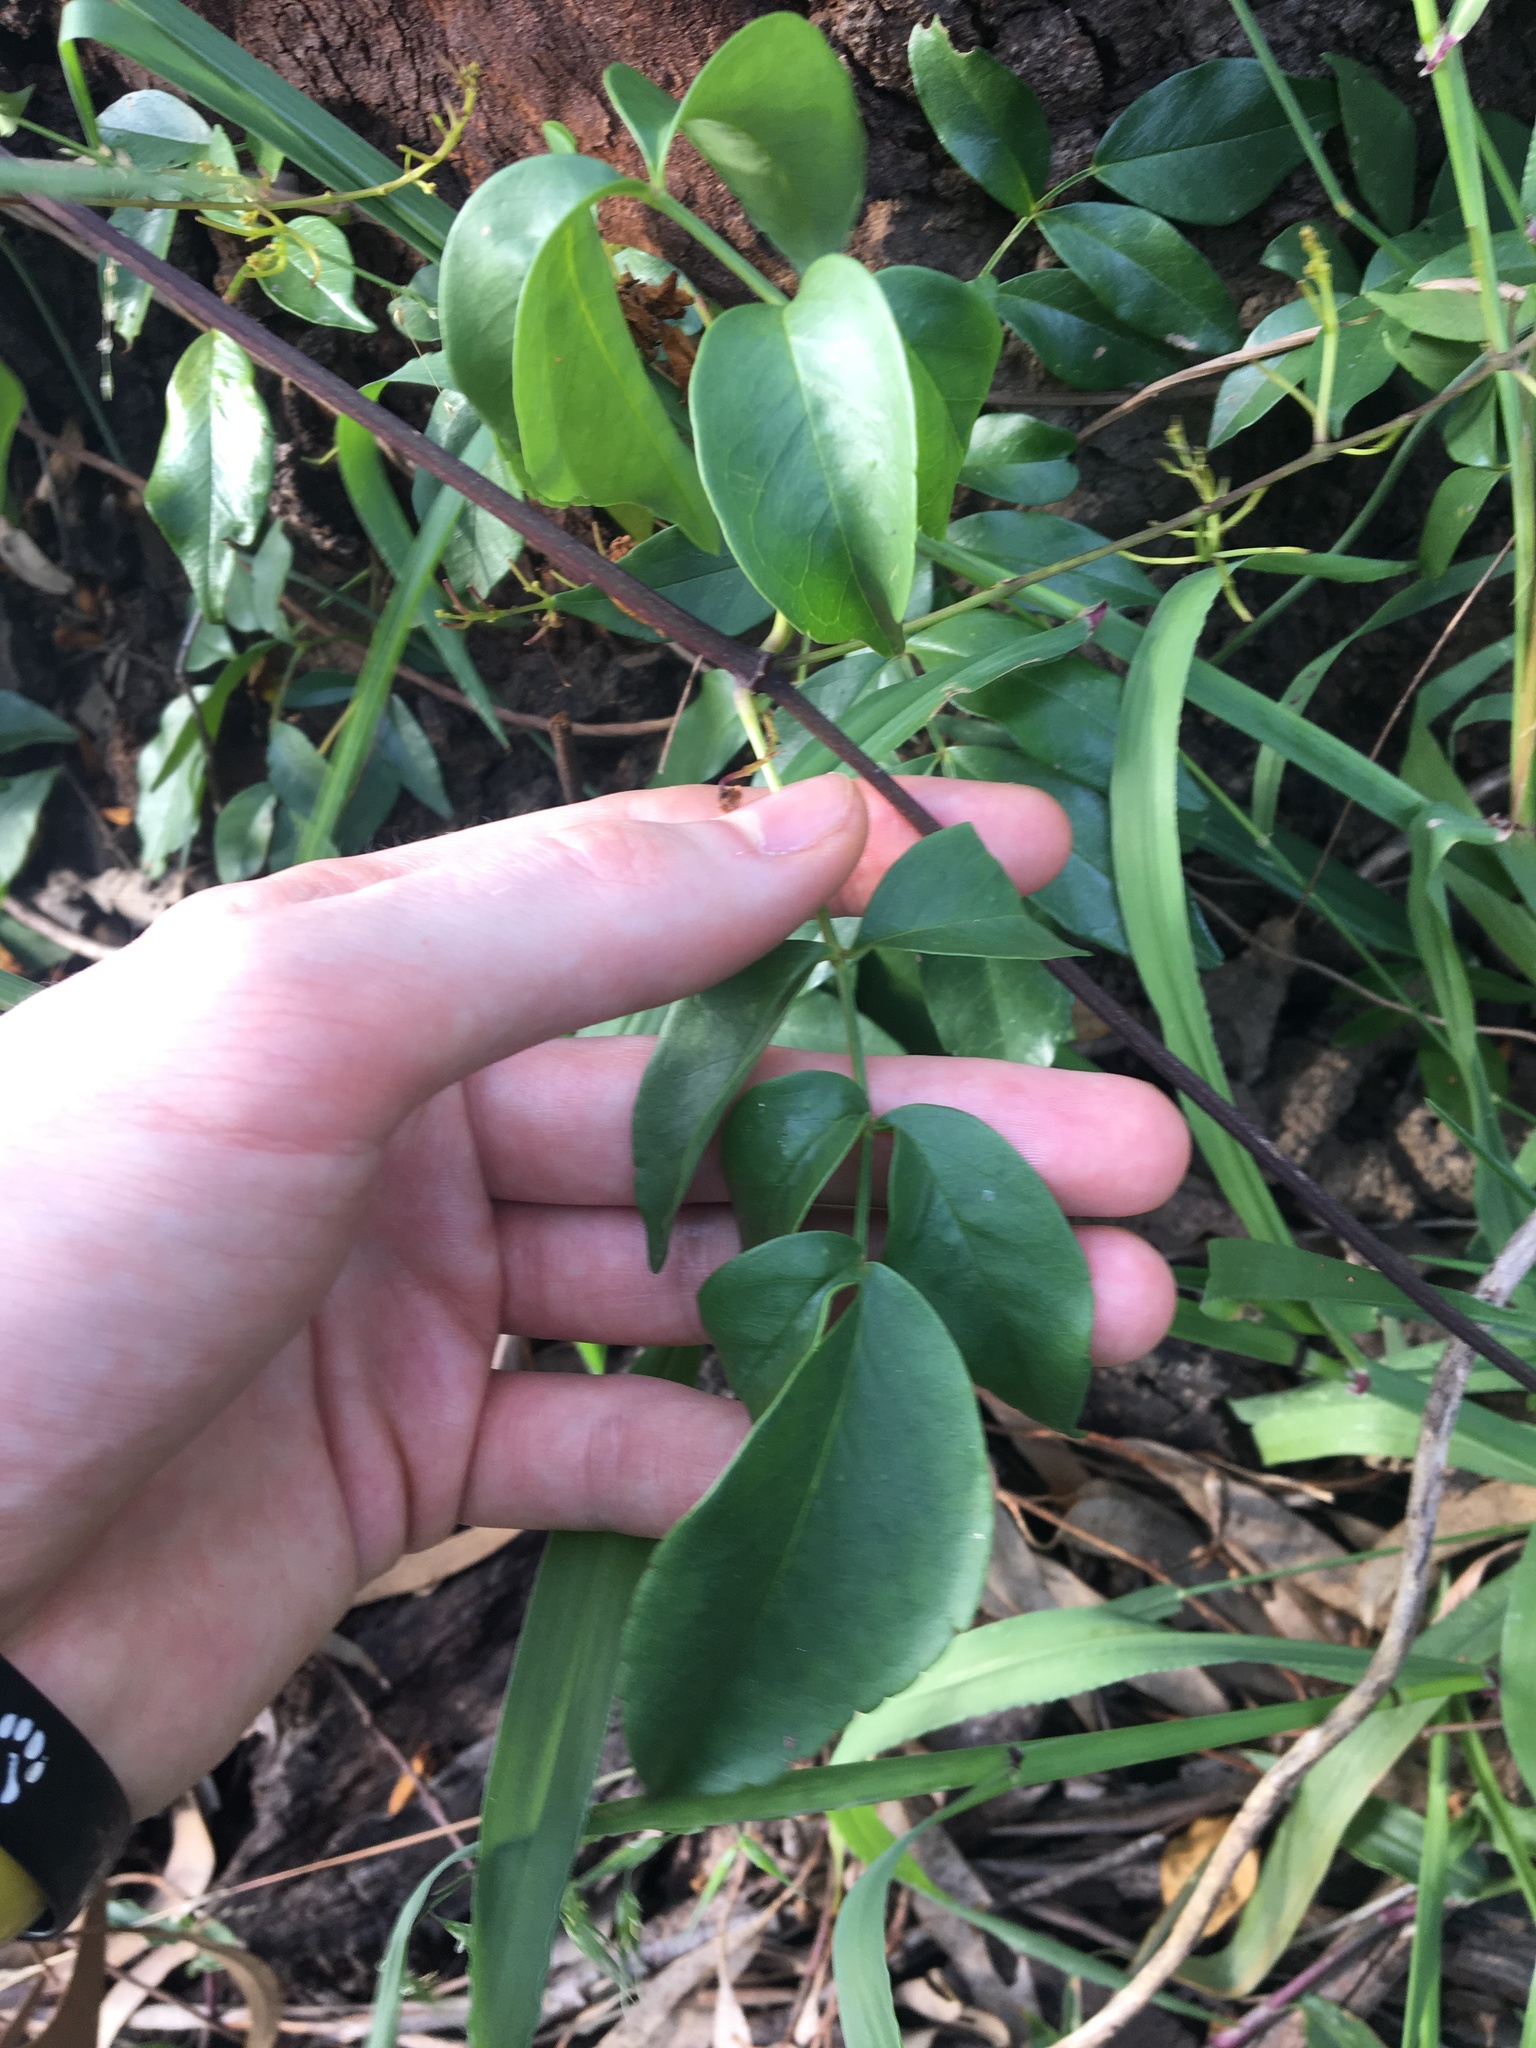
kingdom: Plantae
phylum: Tracheophyta
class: Magnoliopsida
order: Lamiales
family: Bignoniaceae
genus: Pandorea
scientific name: Pandorea pandorana
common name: Wonga-wonga-vine
